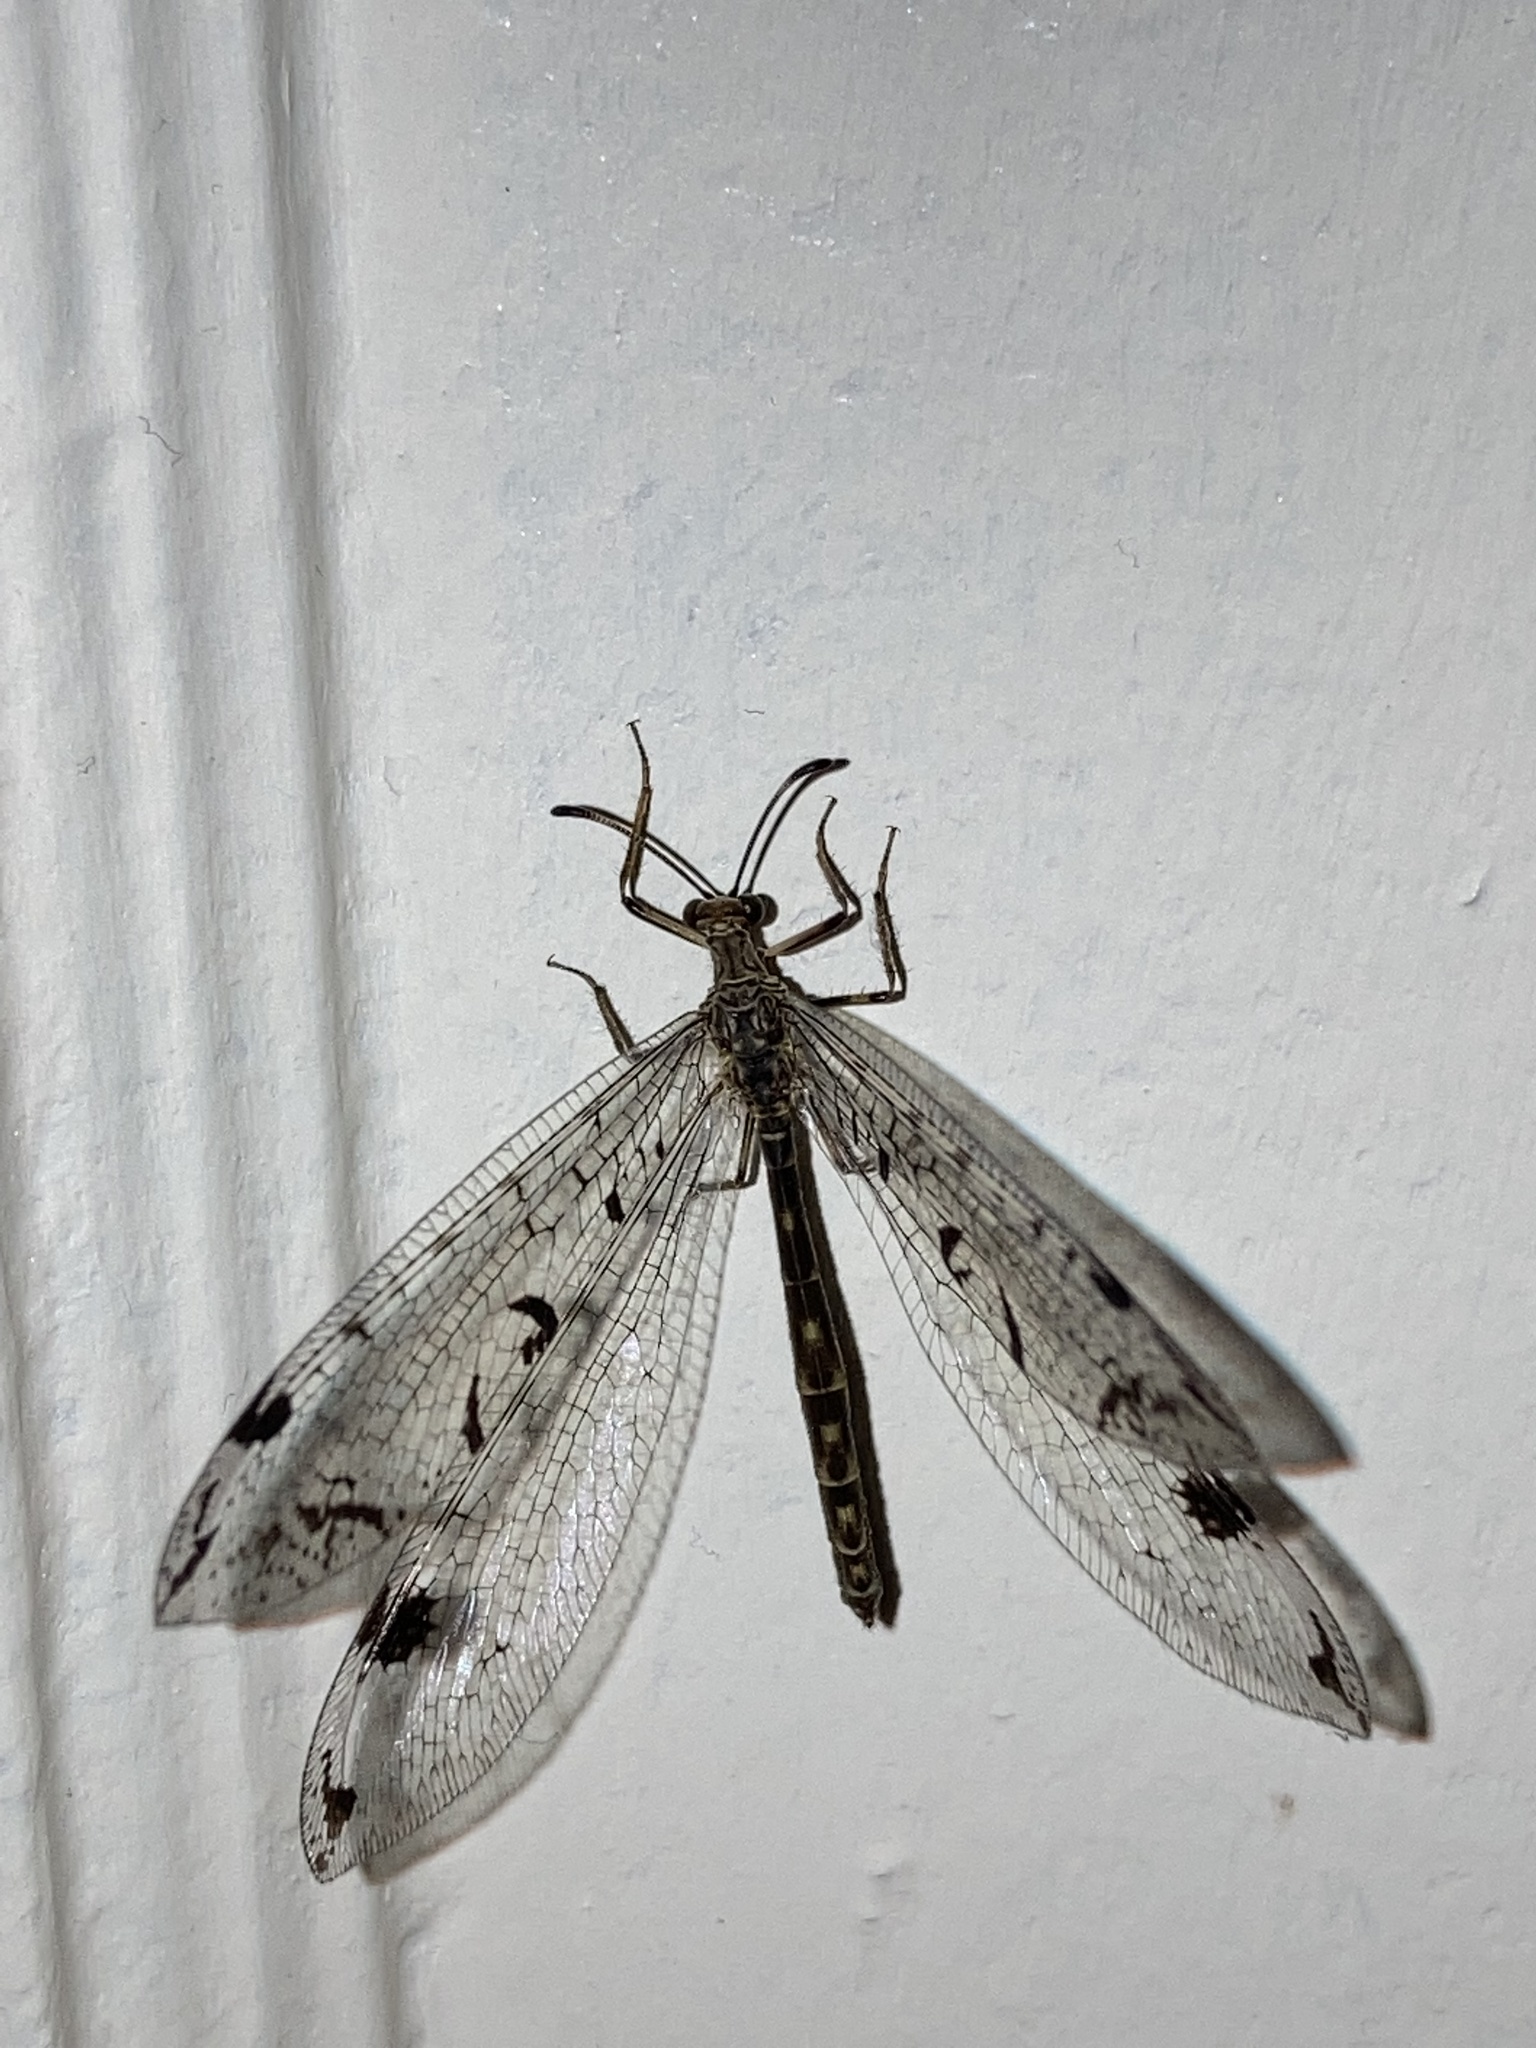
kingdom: Animalia
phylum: Arthropoda
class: Insecta
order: Neuroptera
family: Myrmeleontidae
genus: Dendroleon
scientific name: Dendroleon speciosus
